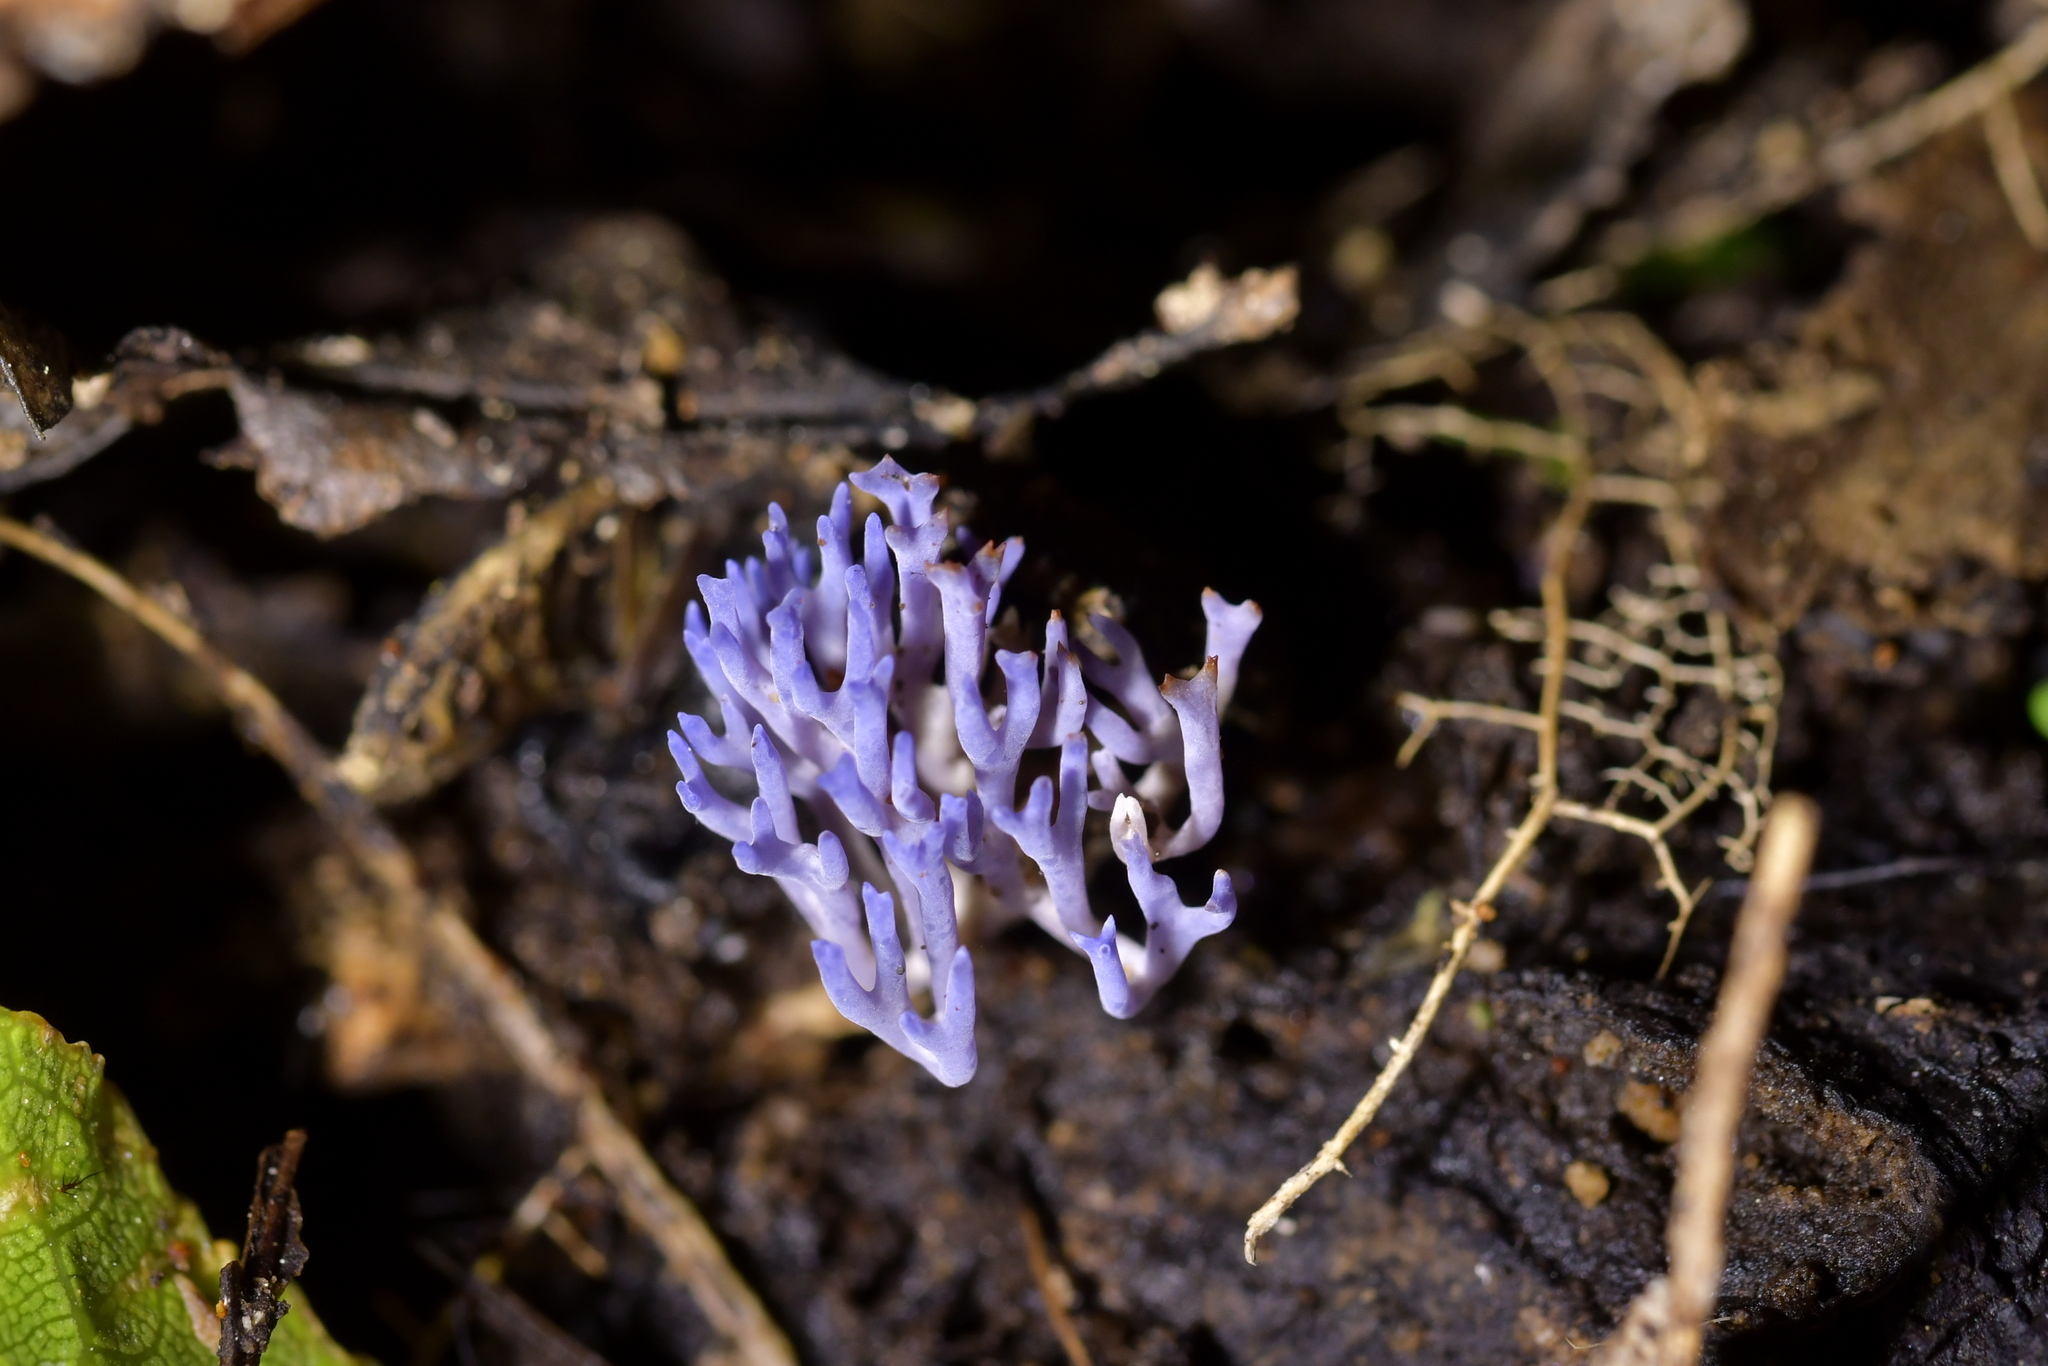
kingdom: Fungi
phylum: Basidiomycota
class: Agaricomycetes
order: Agaricales
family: Clavariaceae
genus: Ramariopsis
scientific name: Ramariopsis pulchella
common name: Lilac coral
